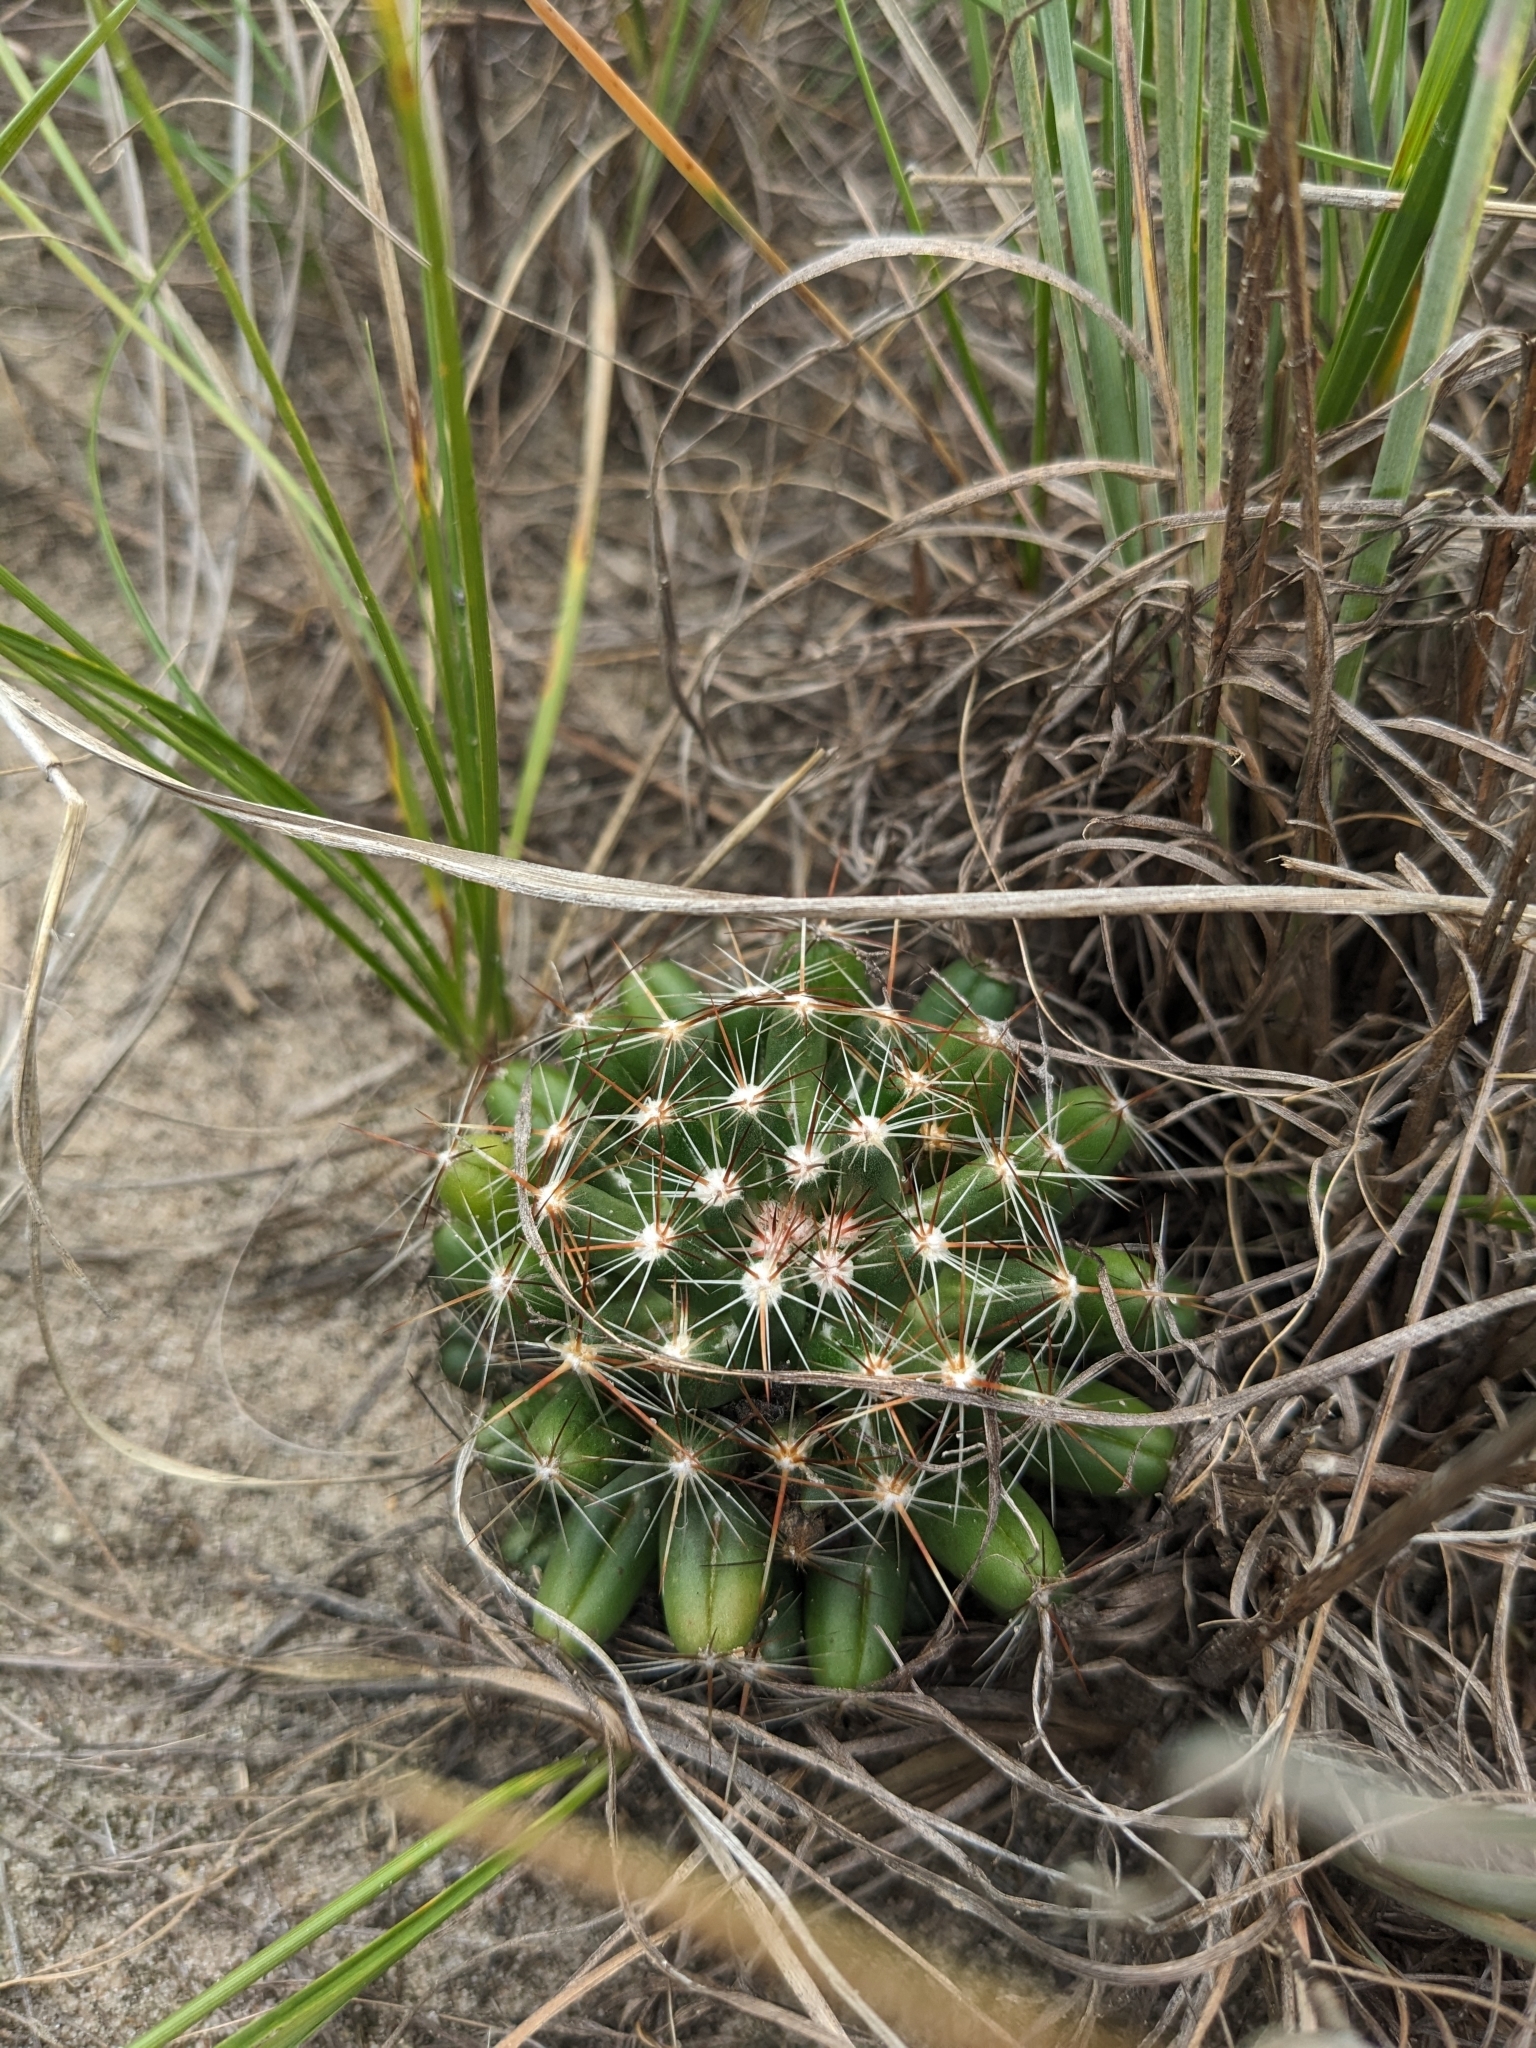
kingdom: Plantae
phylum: Tracheophyta
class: Magnoliopsida
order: Caryophyllales
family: Cactaceae
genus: Pelecyphora
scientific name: Pelecyphora vivipara
